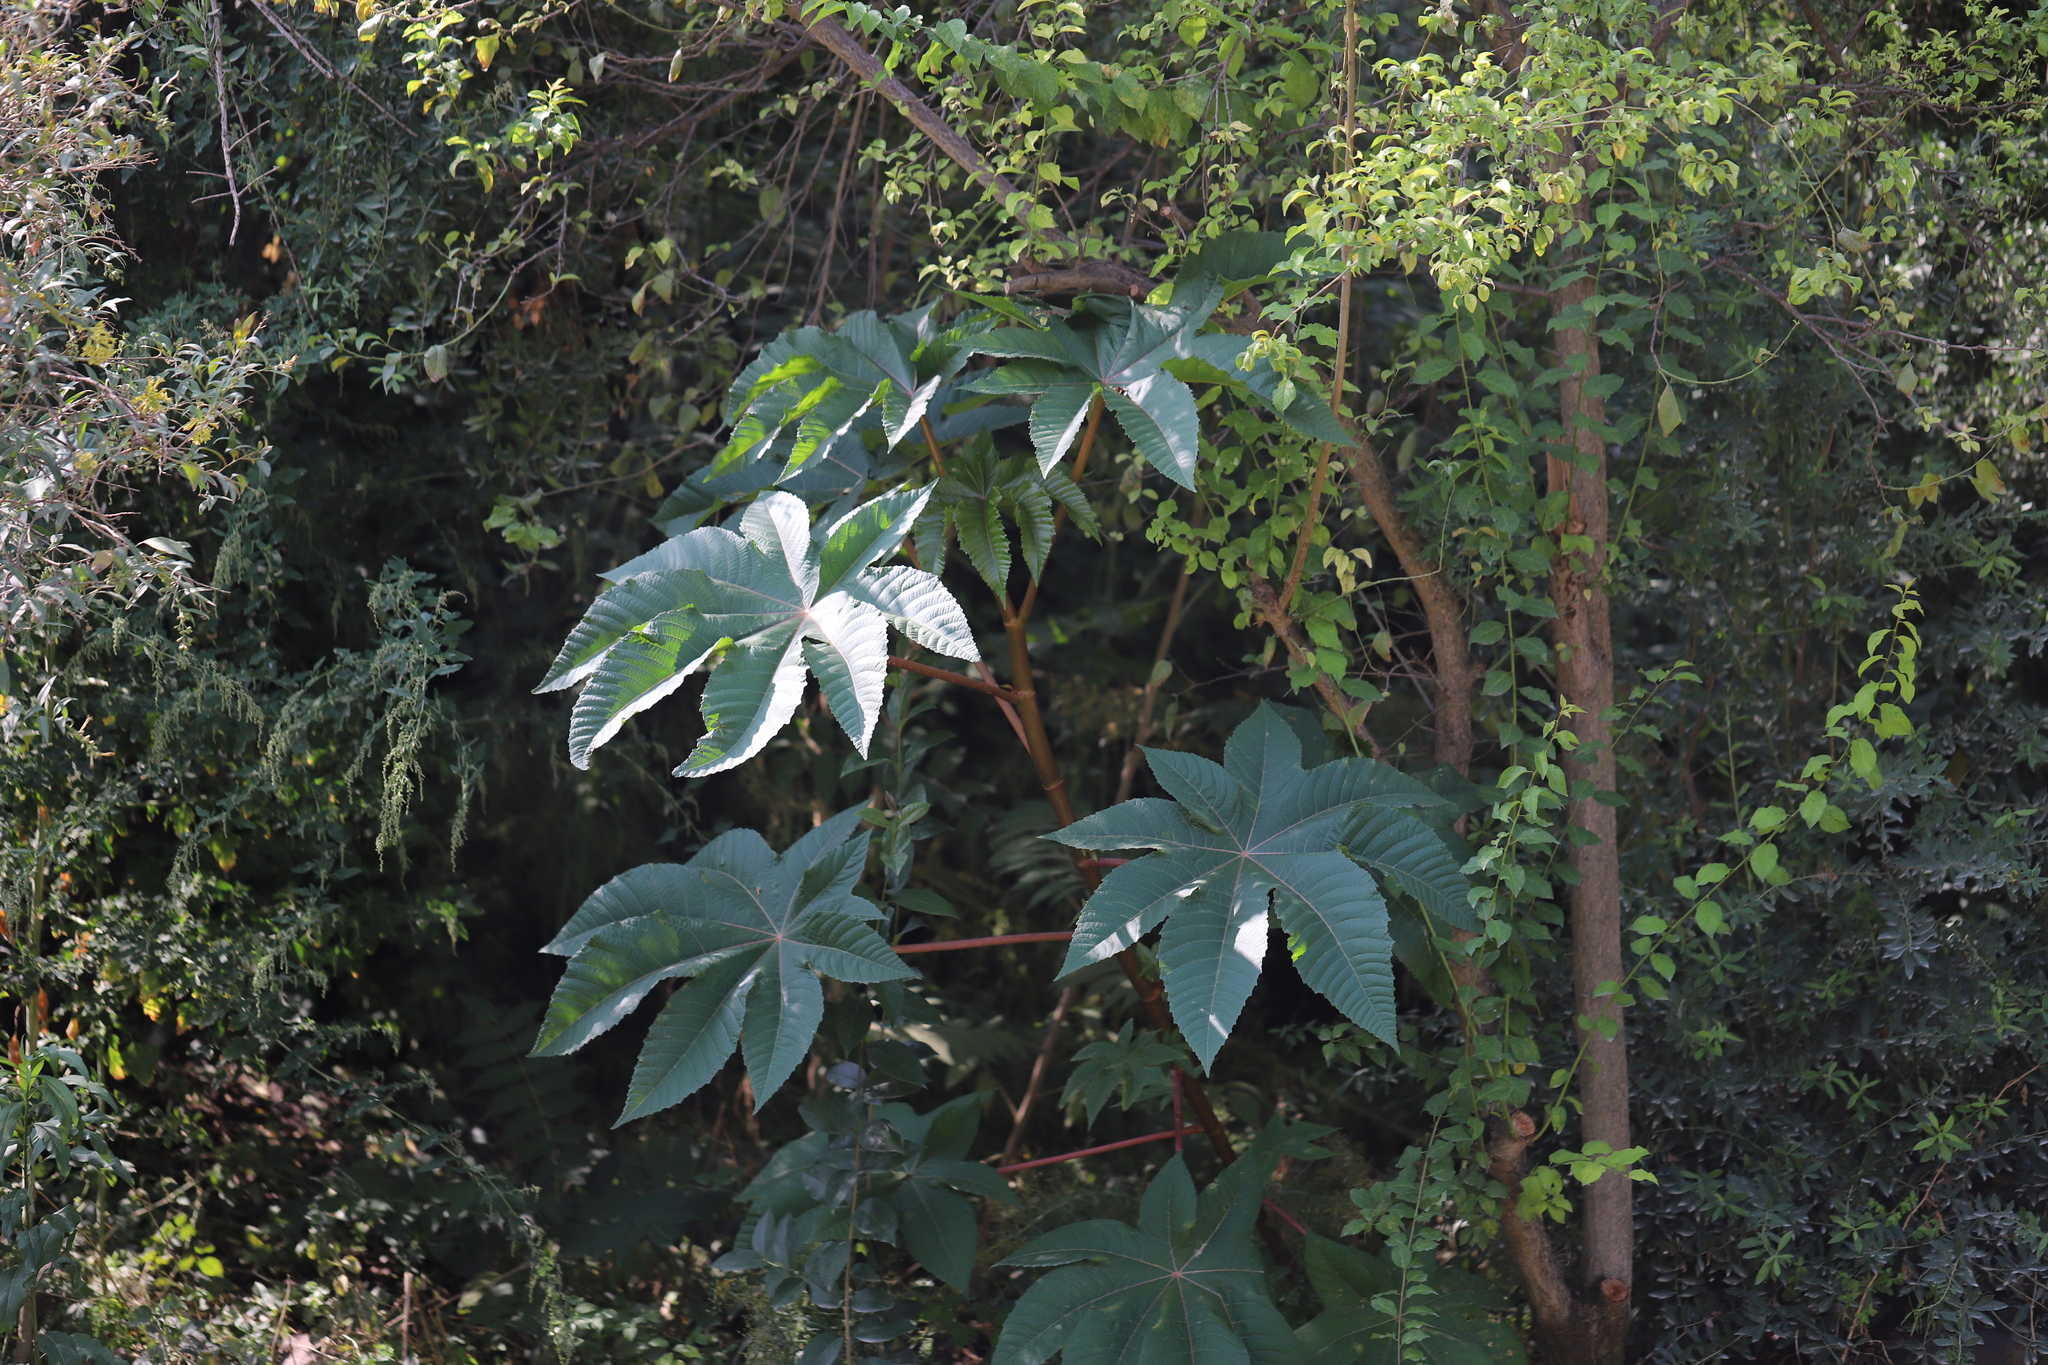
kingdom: Plantae
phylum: Tracheophyta
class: Magnoliopsida
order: Malpighiales
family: Euphorbiaceae
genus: Ricinus
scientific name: Ricinus communis
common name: Castor-oil-plant
